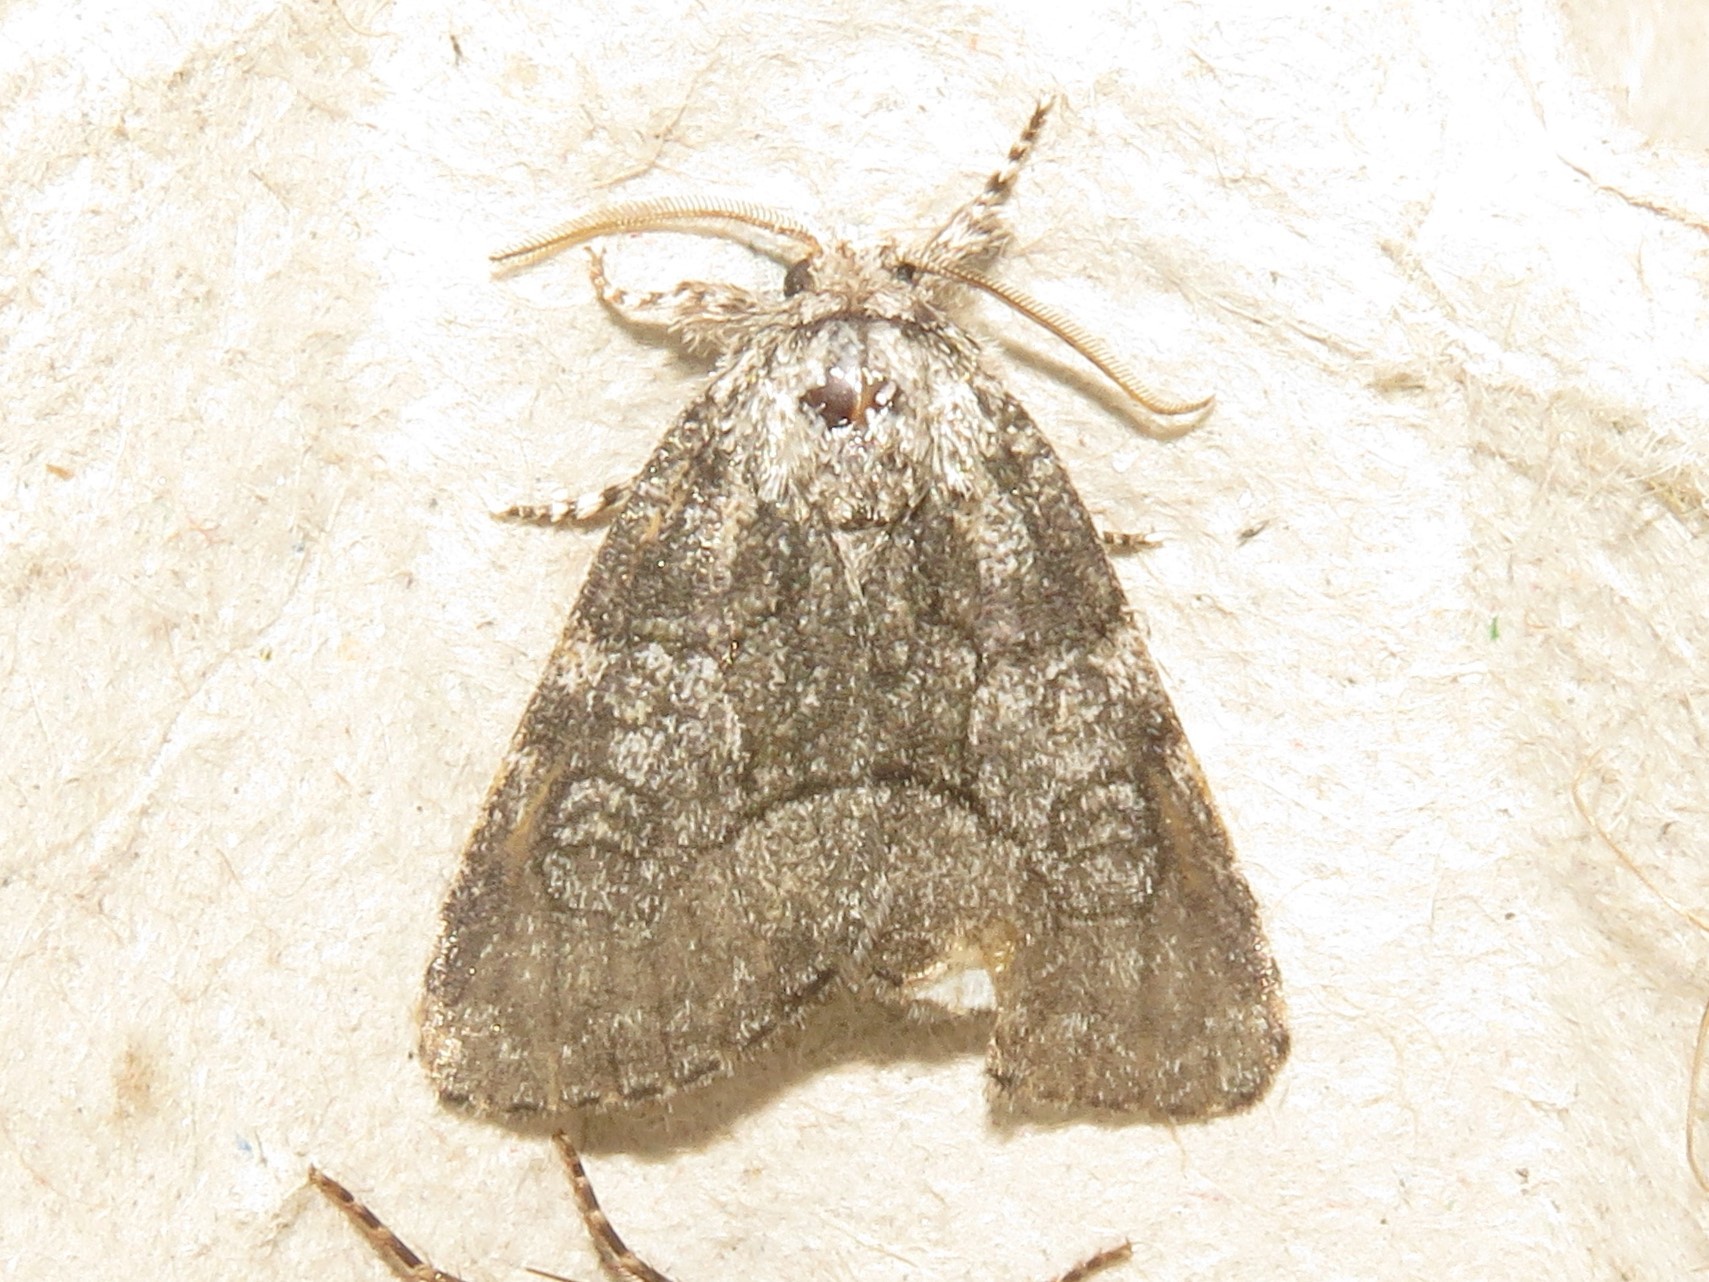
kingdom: Animalia
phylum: Arthropoda
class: Insecta
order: Lepidoptera
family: Noctuidae
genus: Raphia
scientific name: Raphia frater
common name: Brother
